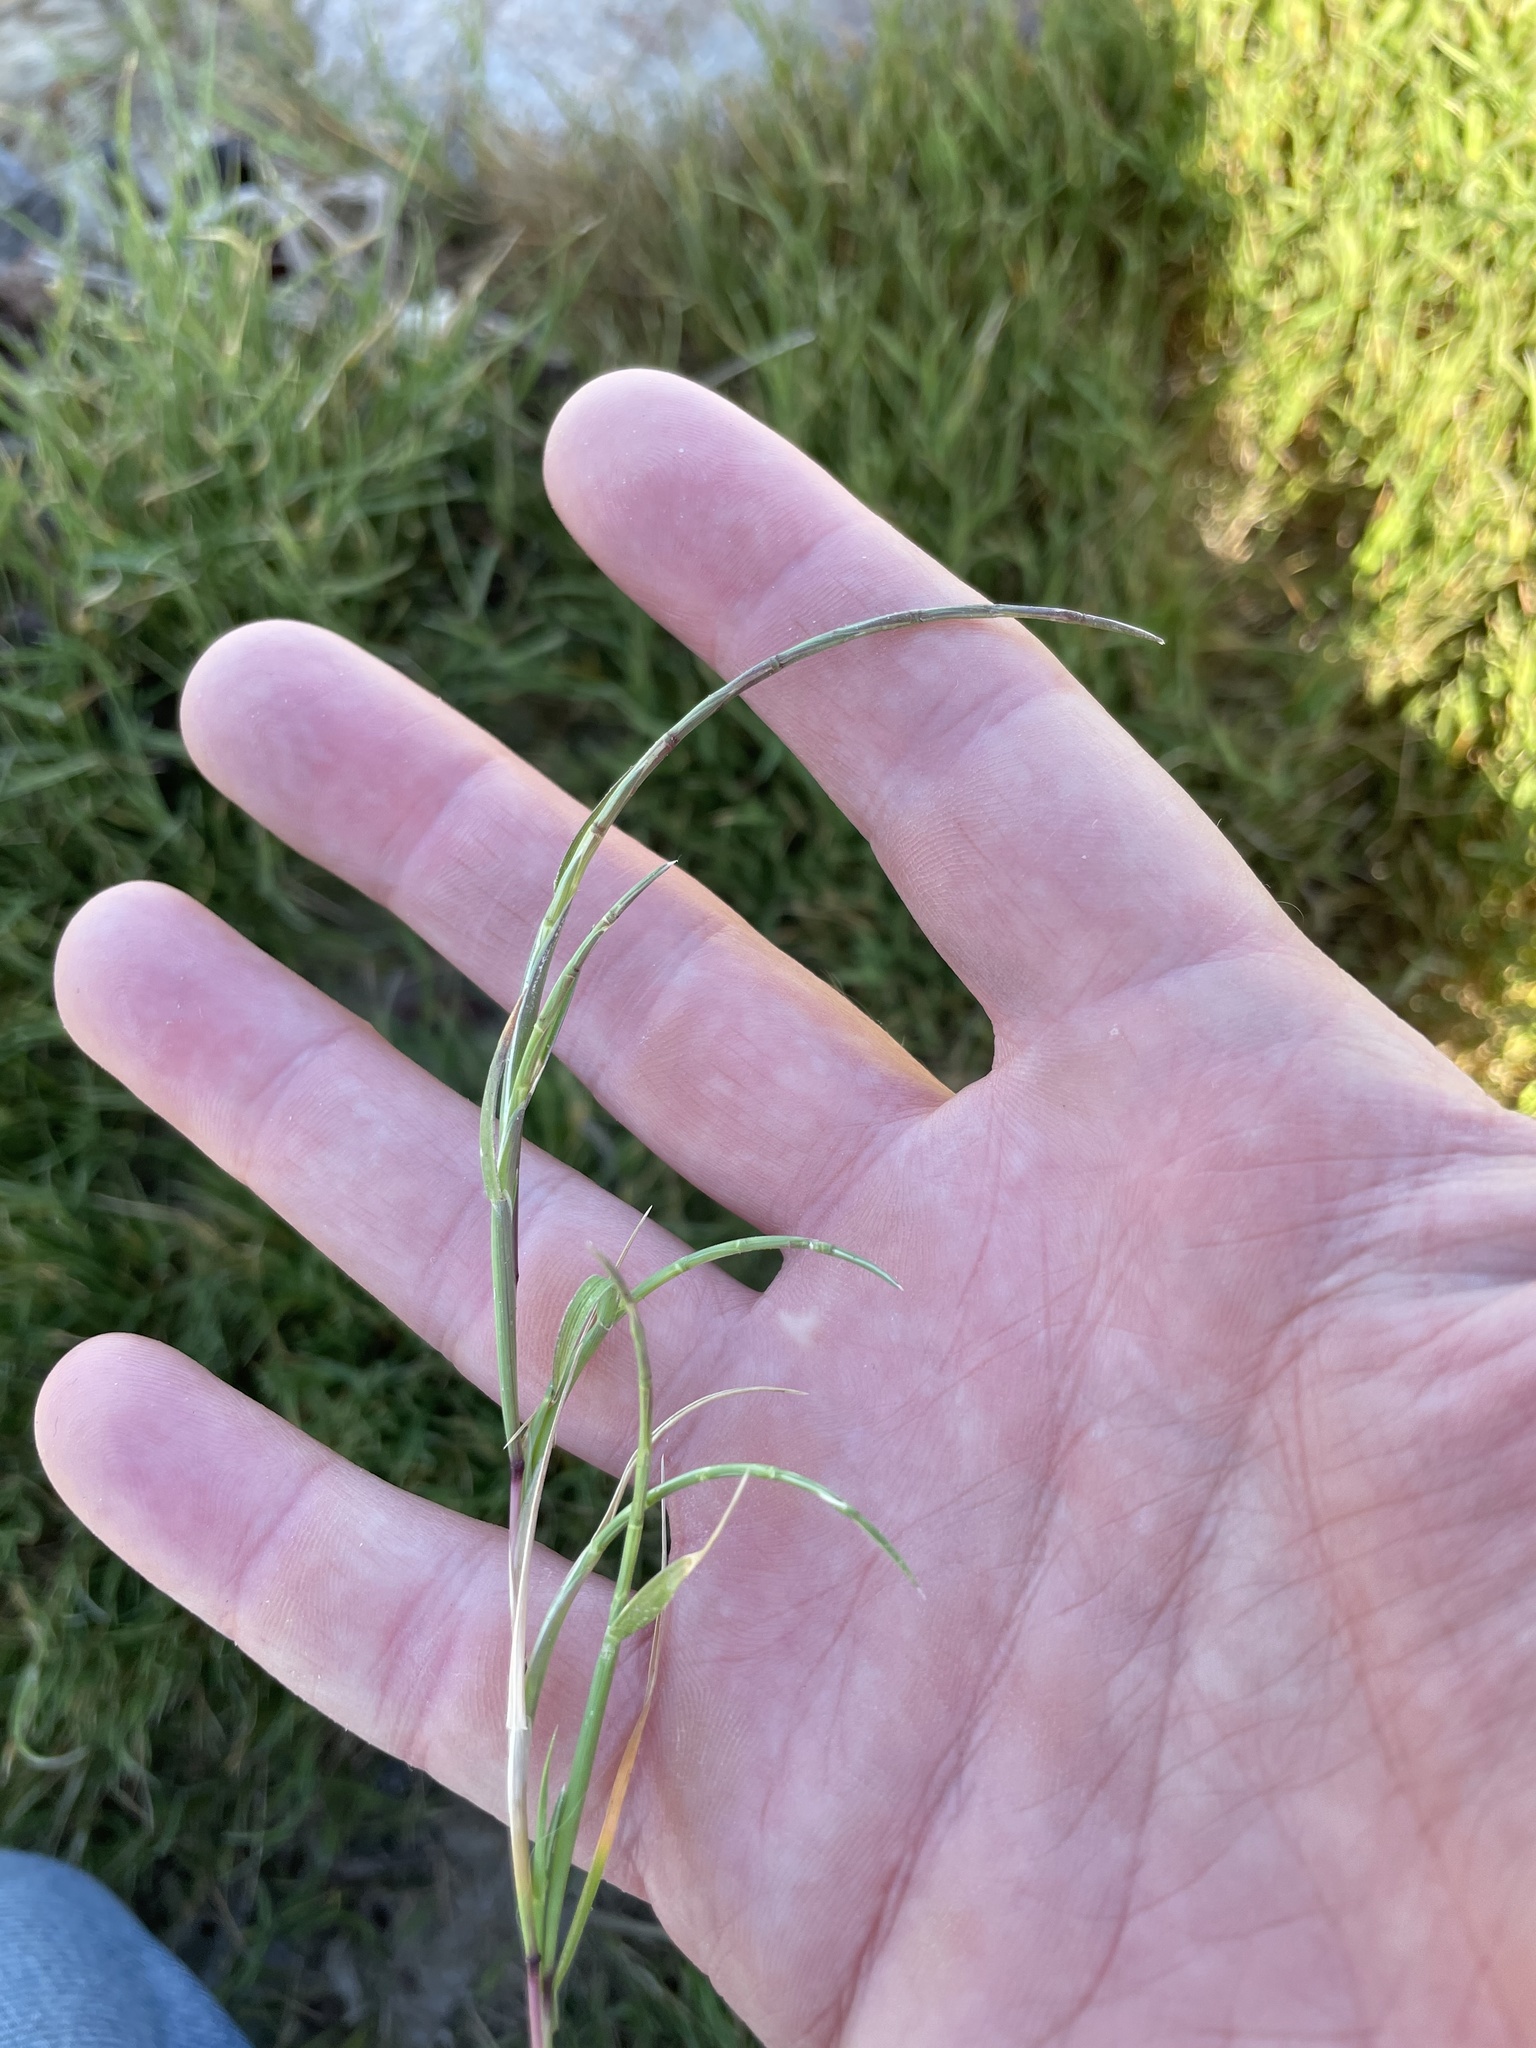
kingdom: Plantae
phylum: Tracheophyta
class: Liliopsida
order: Poales
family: Poaceae
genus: Parapholis
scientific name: Parapholis incurva
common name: Curved sicklegrass
